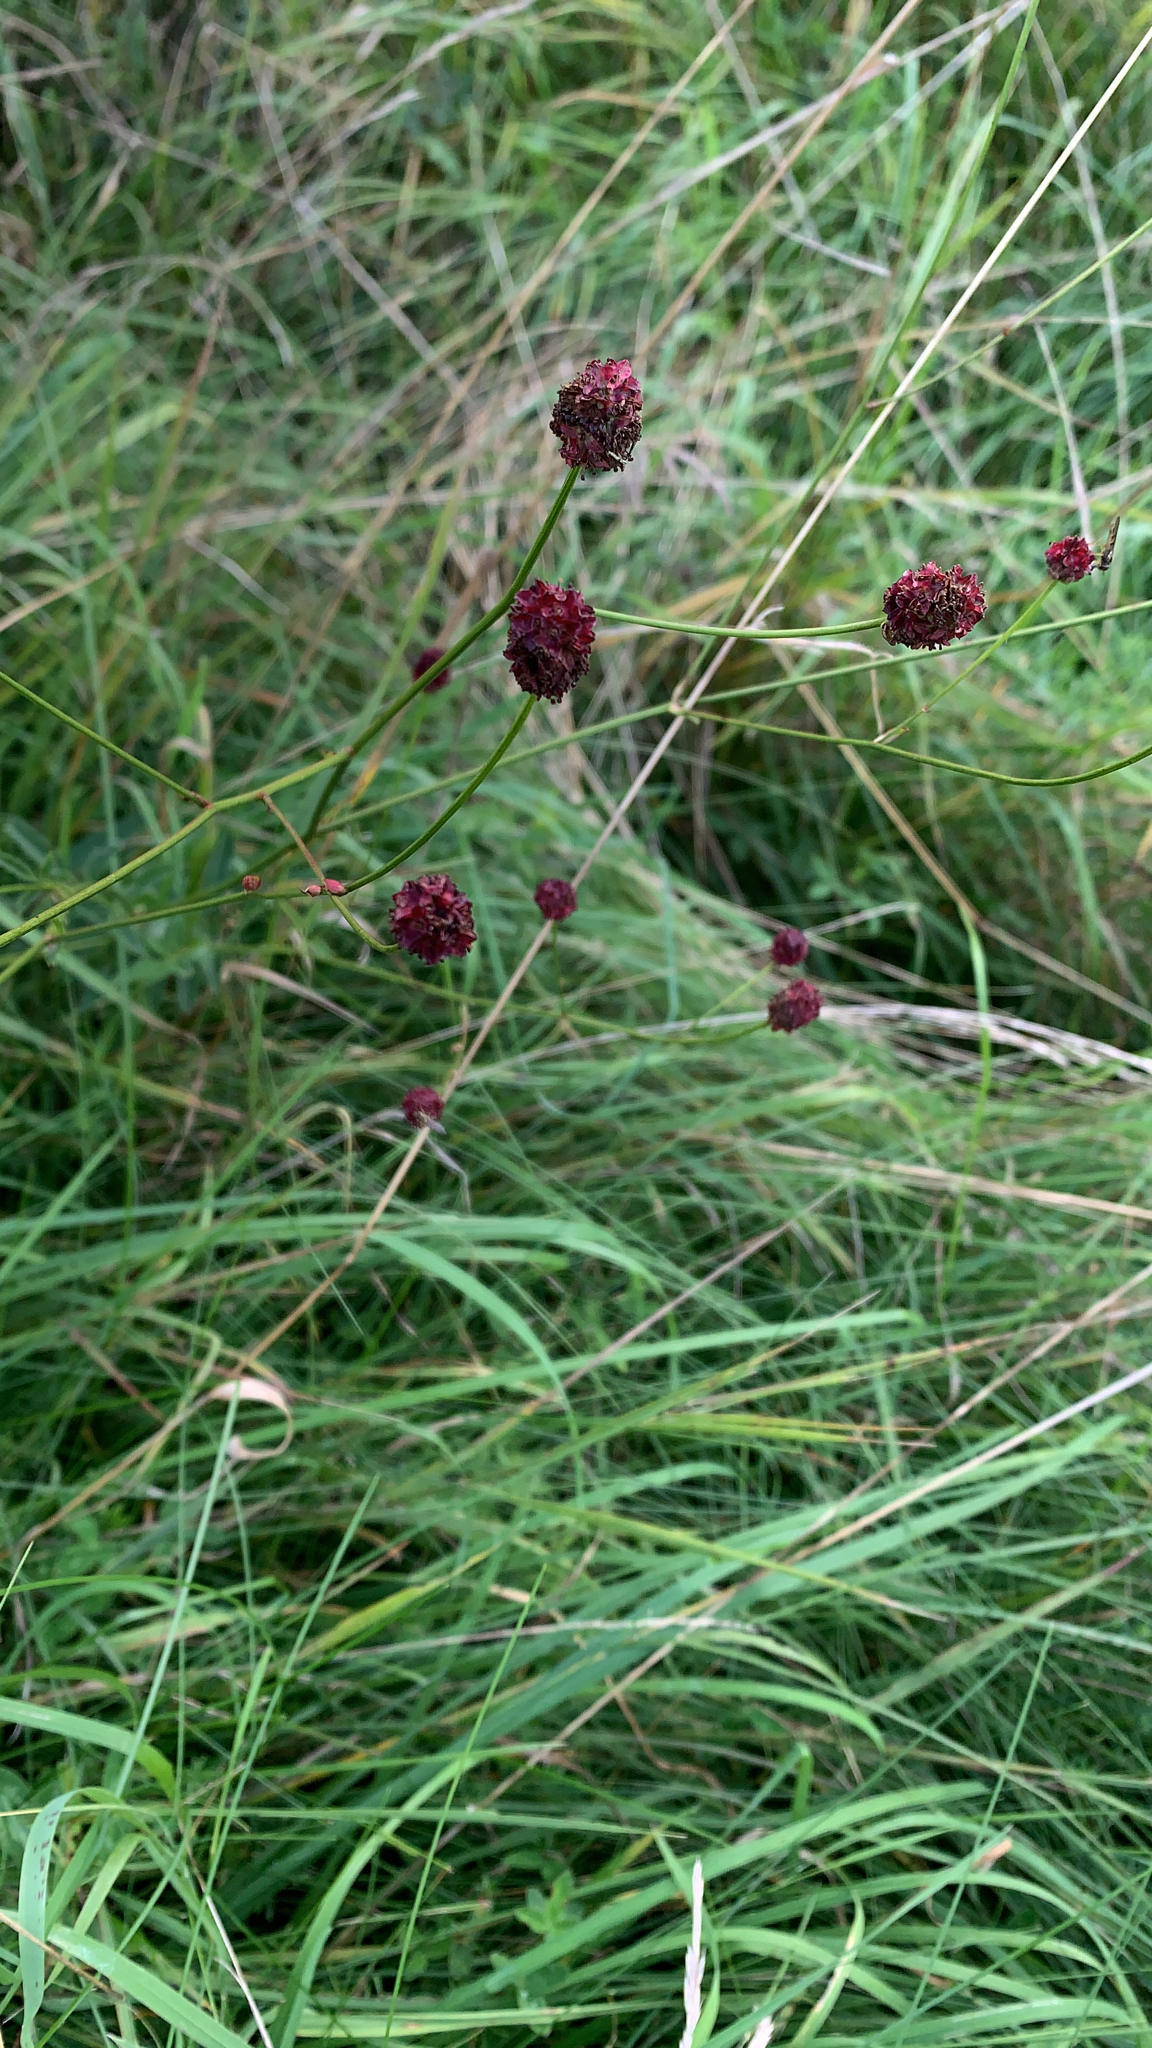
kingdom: Plantae
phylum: Tracheophyta
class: Magnoliopsida
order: Rosales
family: Rosaceae
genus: Sanguisorba
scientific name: Sanguisorba officinalis
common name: Great burnet
